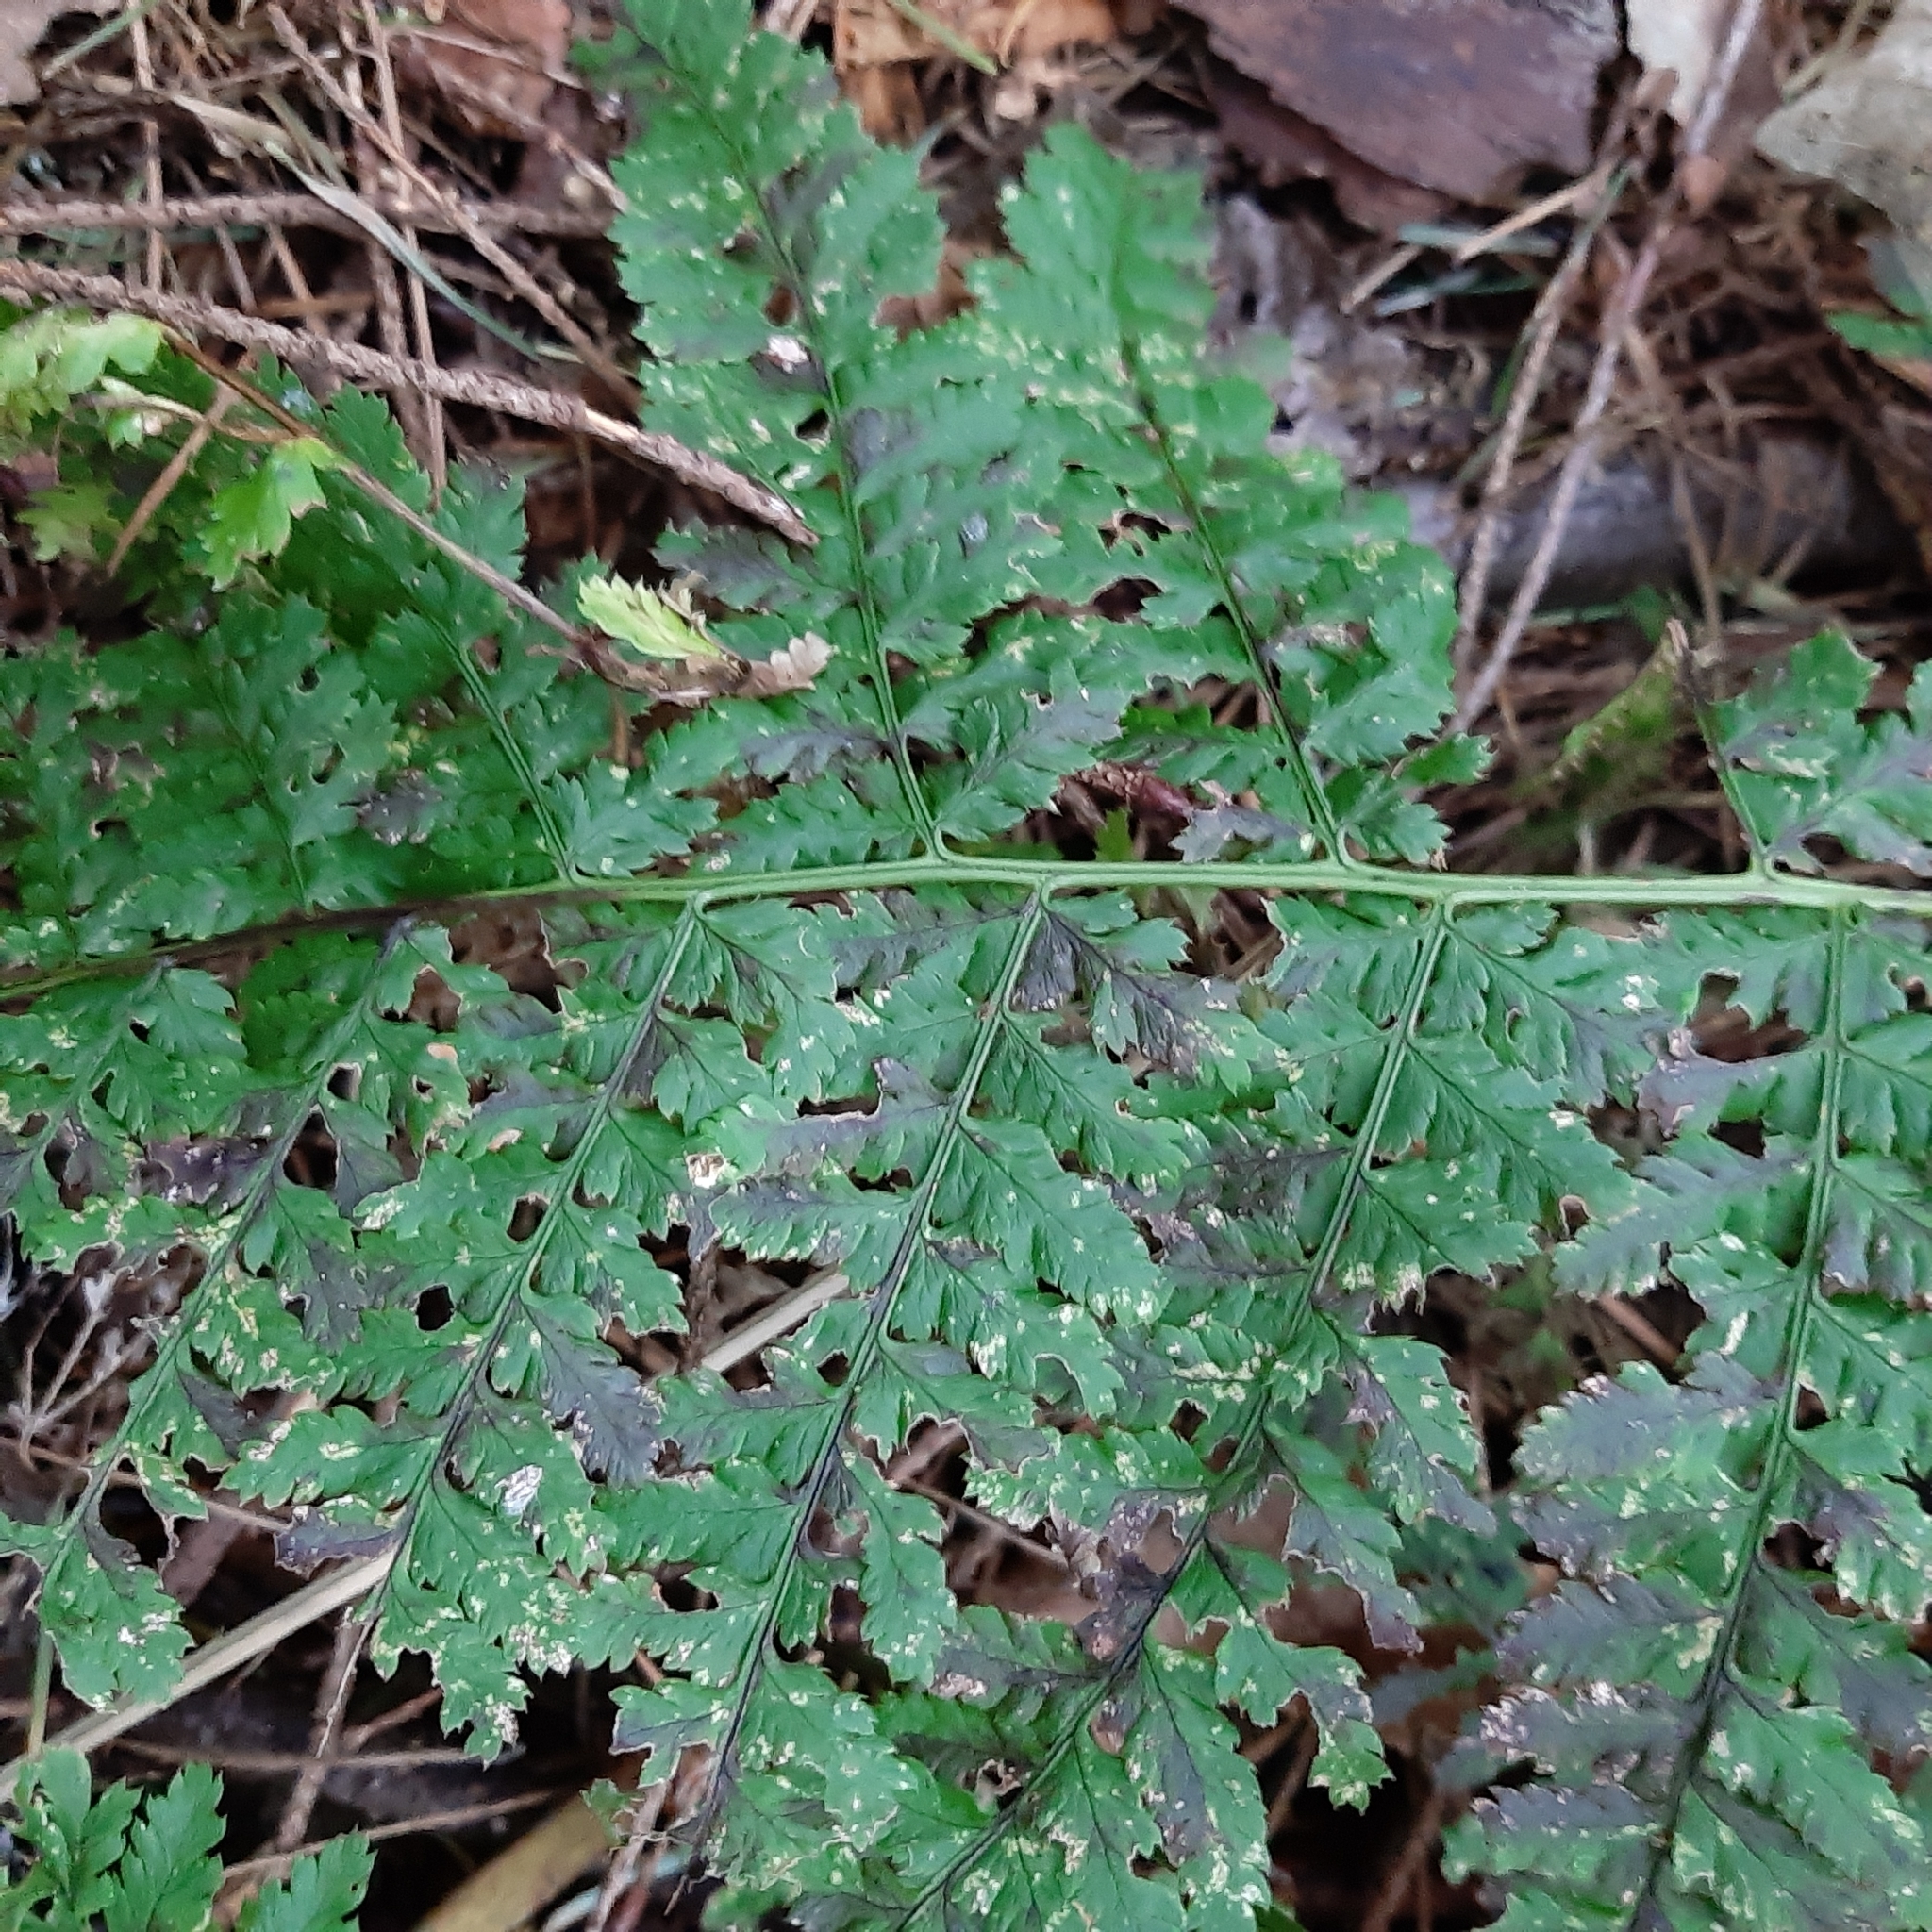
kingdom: Plantae
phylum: Tracheophyta
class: Polypodiopsida
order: Polypodiales
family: Dryopteridaceae
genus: Dryopteris
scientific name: Dryopteris dilatata
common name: Broad buckler-fern
